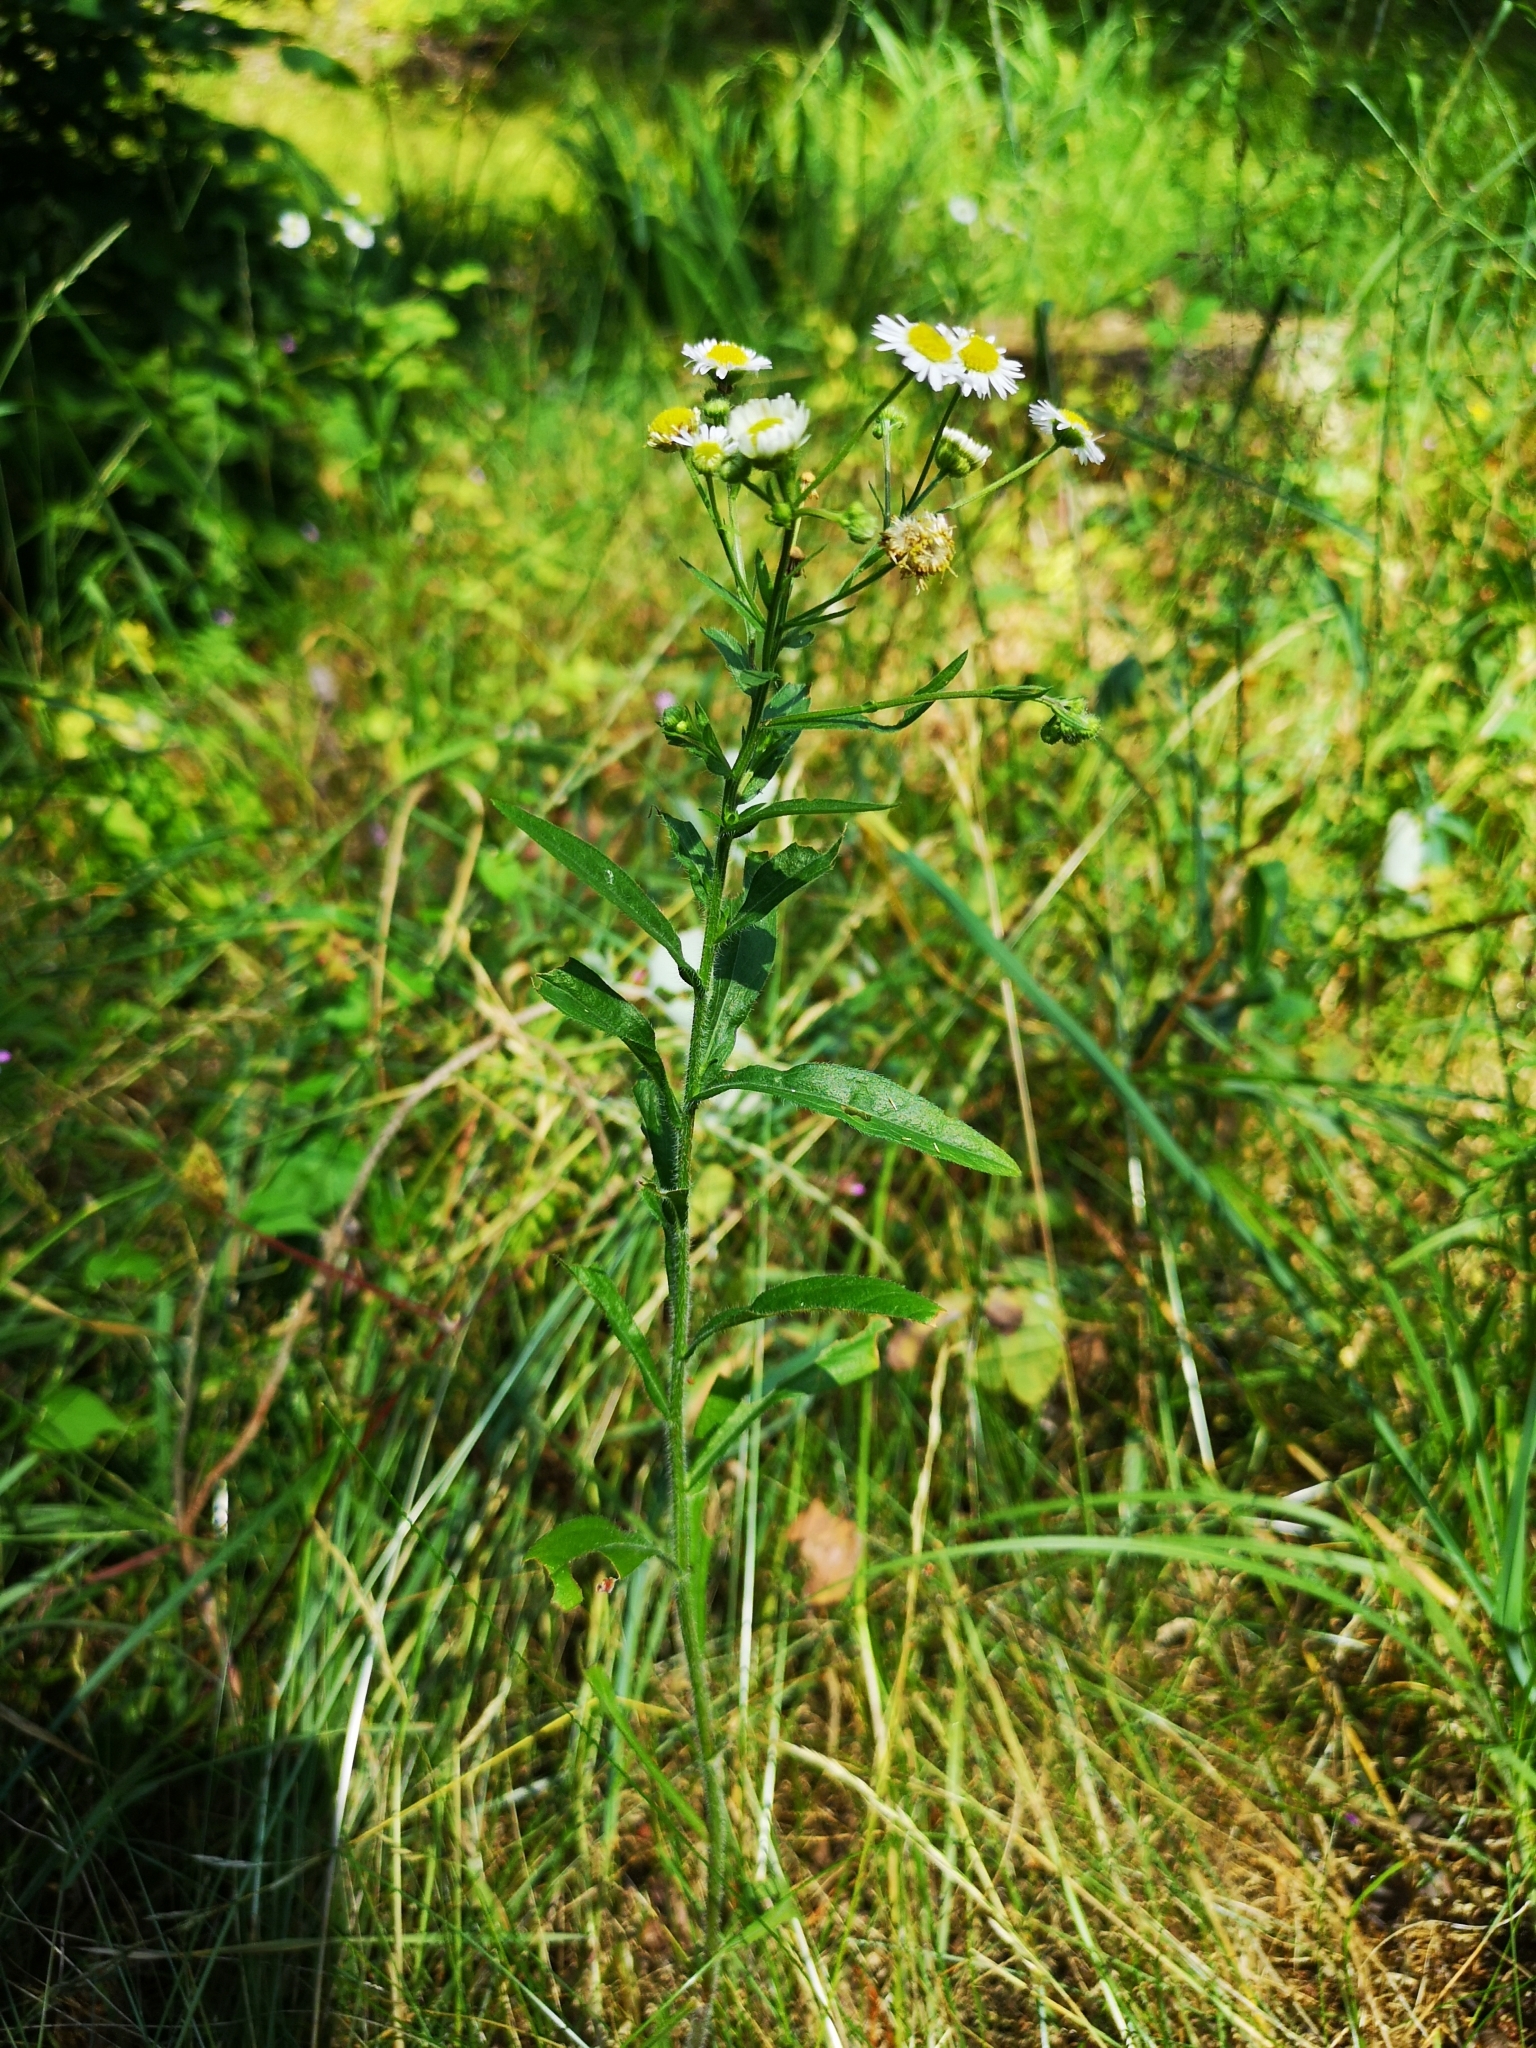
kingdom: Plantae
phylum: Tracheophyta
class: Magnoliopsida
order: Asterales
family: Asteraceae
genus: Erigeron
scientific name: Erigeron annuus
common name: Tall fleabane
